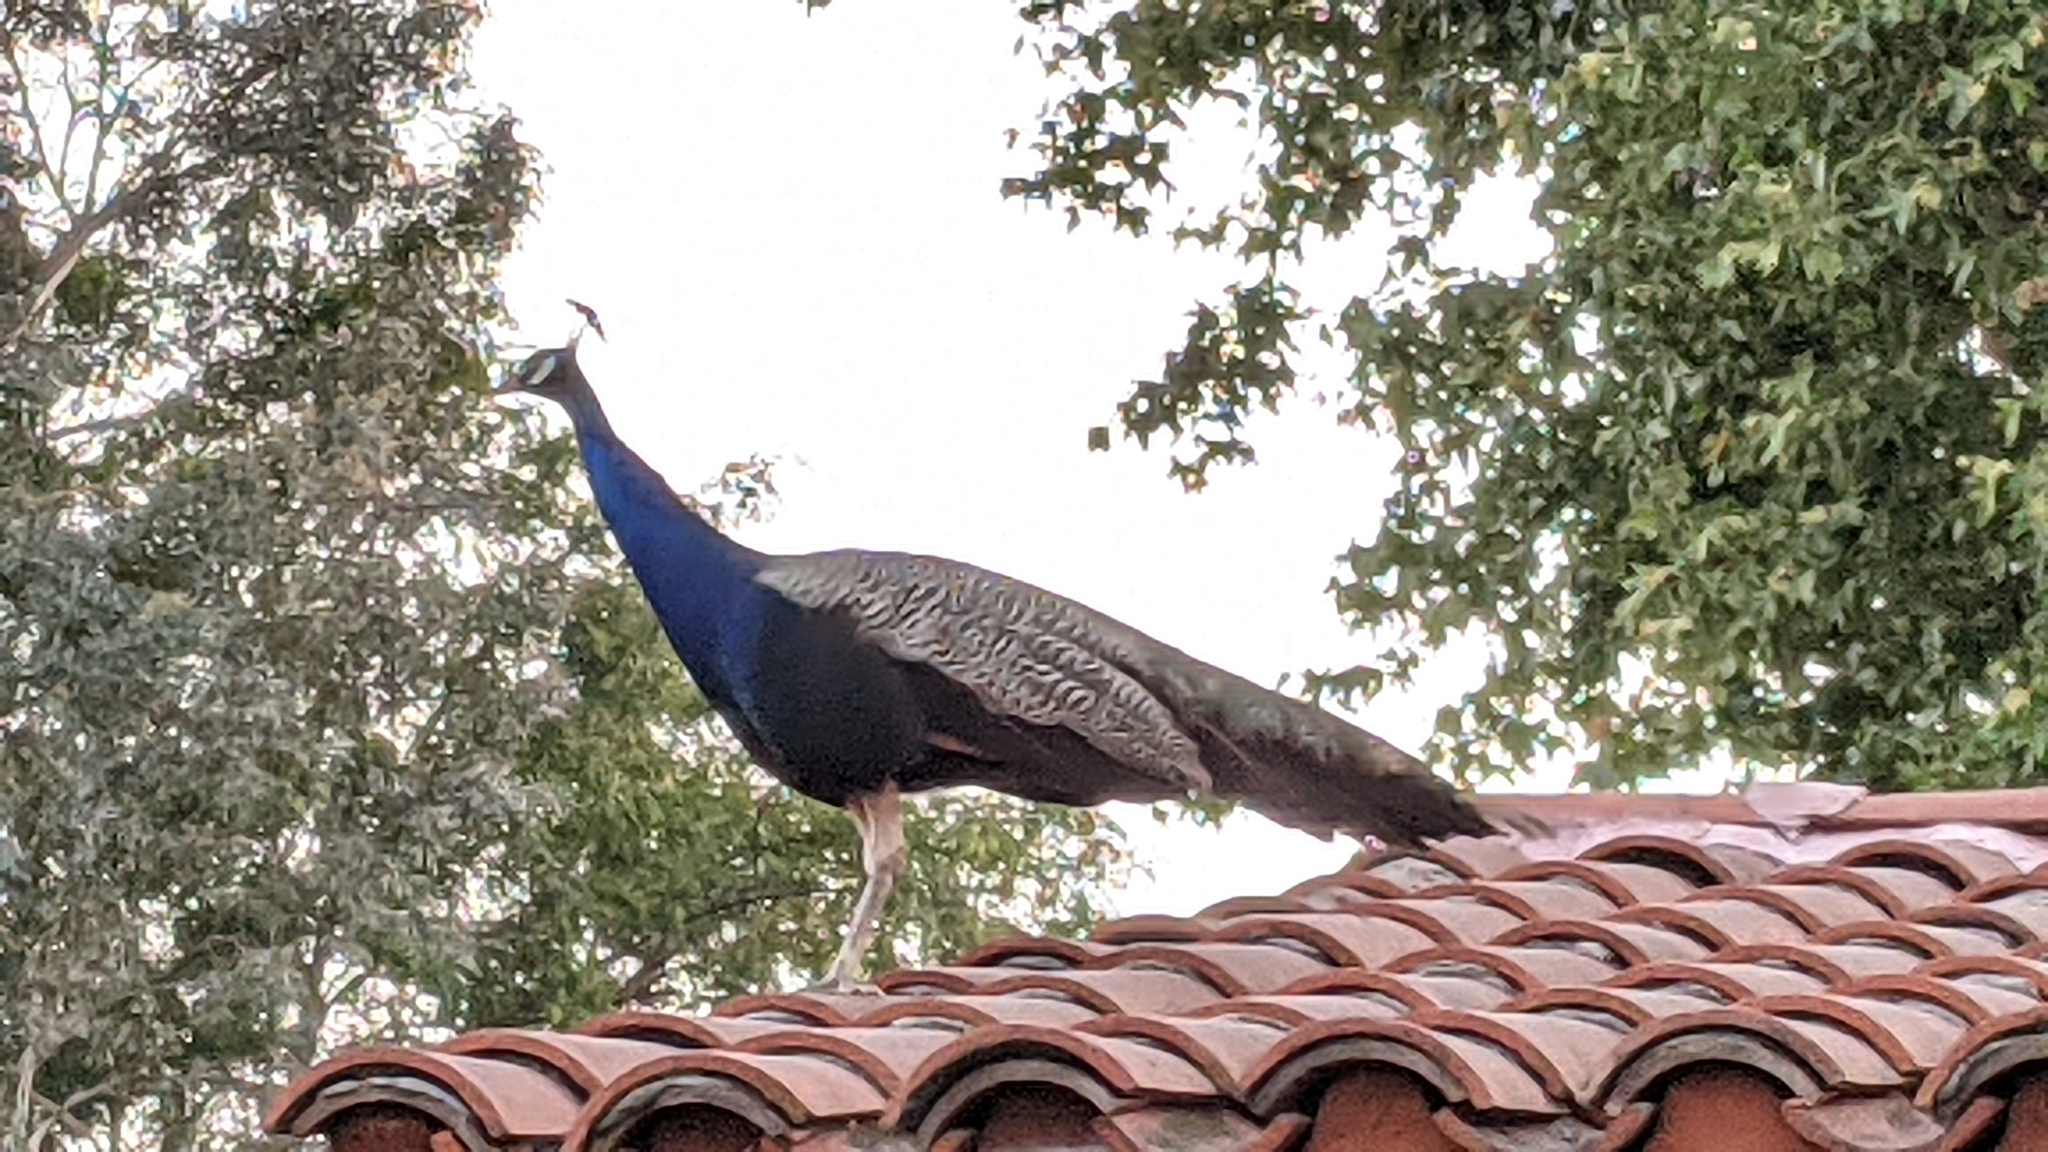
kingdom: Animalia
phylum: Chordata
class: Aves
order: Galliformes
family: Phasianidae
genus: Pavo
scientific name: Pavo cristatus
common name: Indian peafowl
